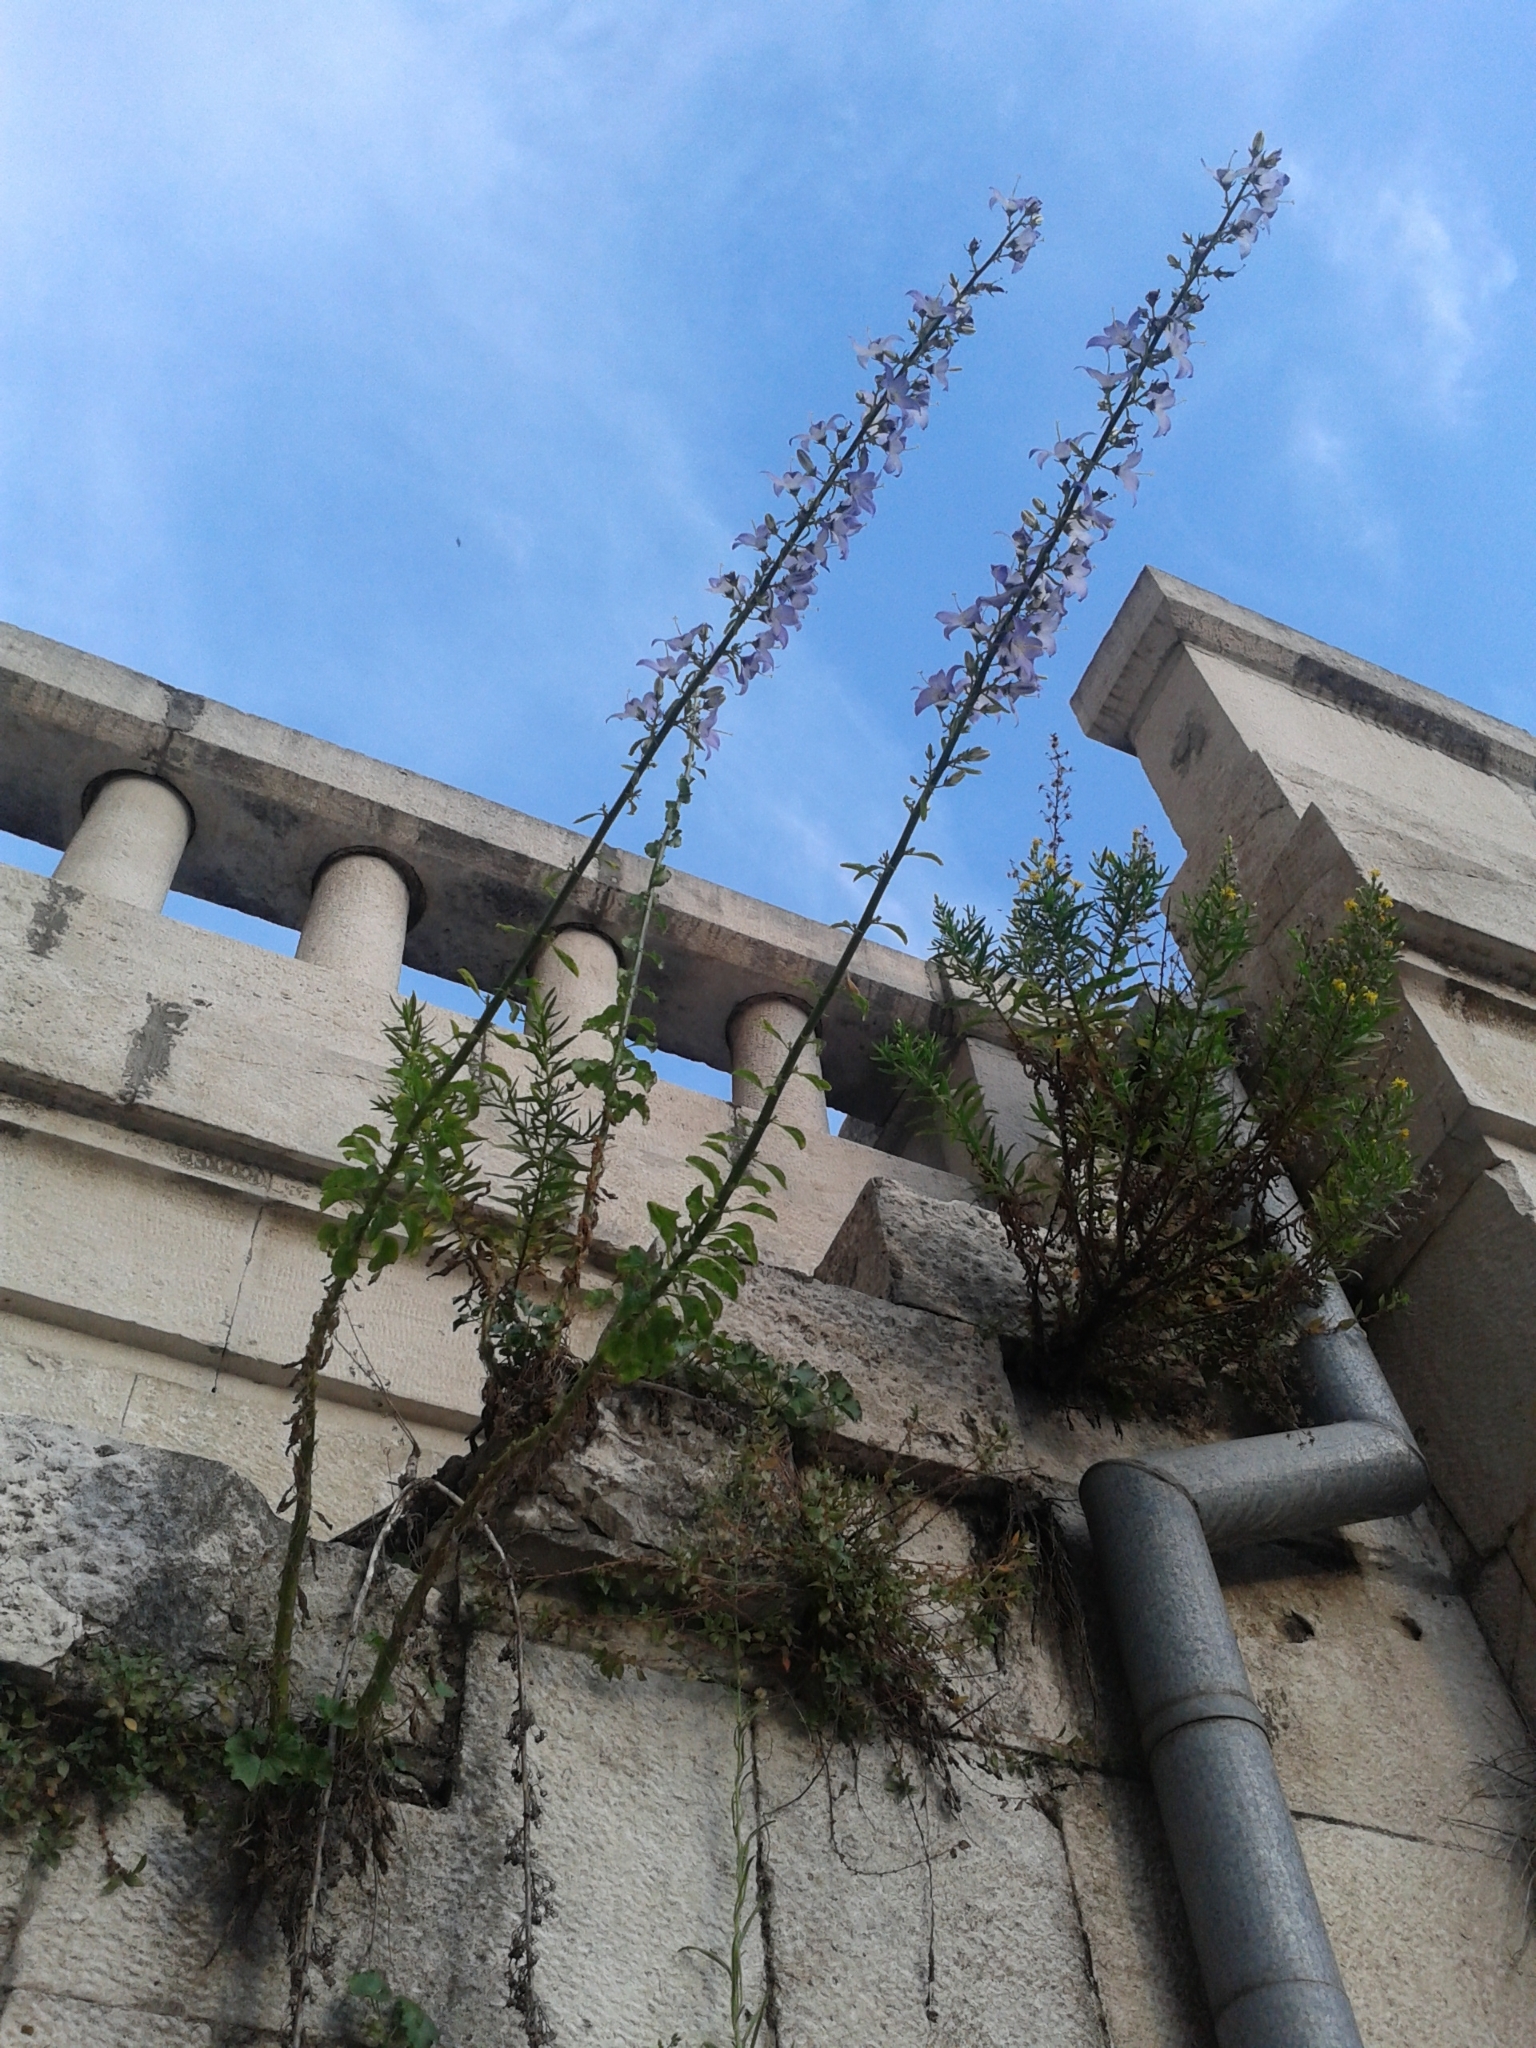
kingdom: Plantae
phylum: Tracheophyta
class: Magnoliopsida
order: Asterales
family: Campanulaceae
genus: Campanula
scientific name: Campanula pyramidalis
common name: Chimney bellflower
